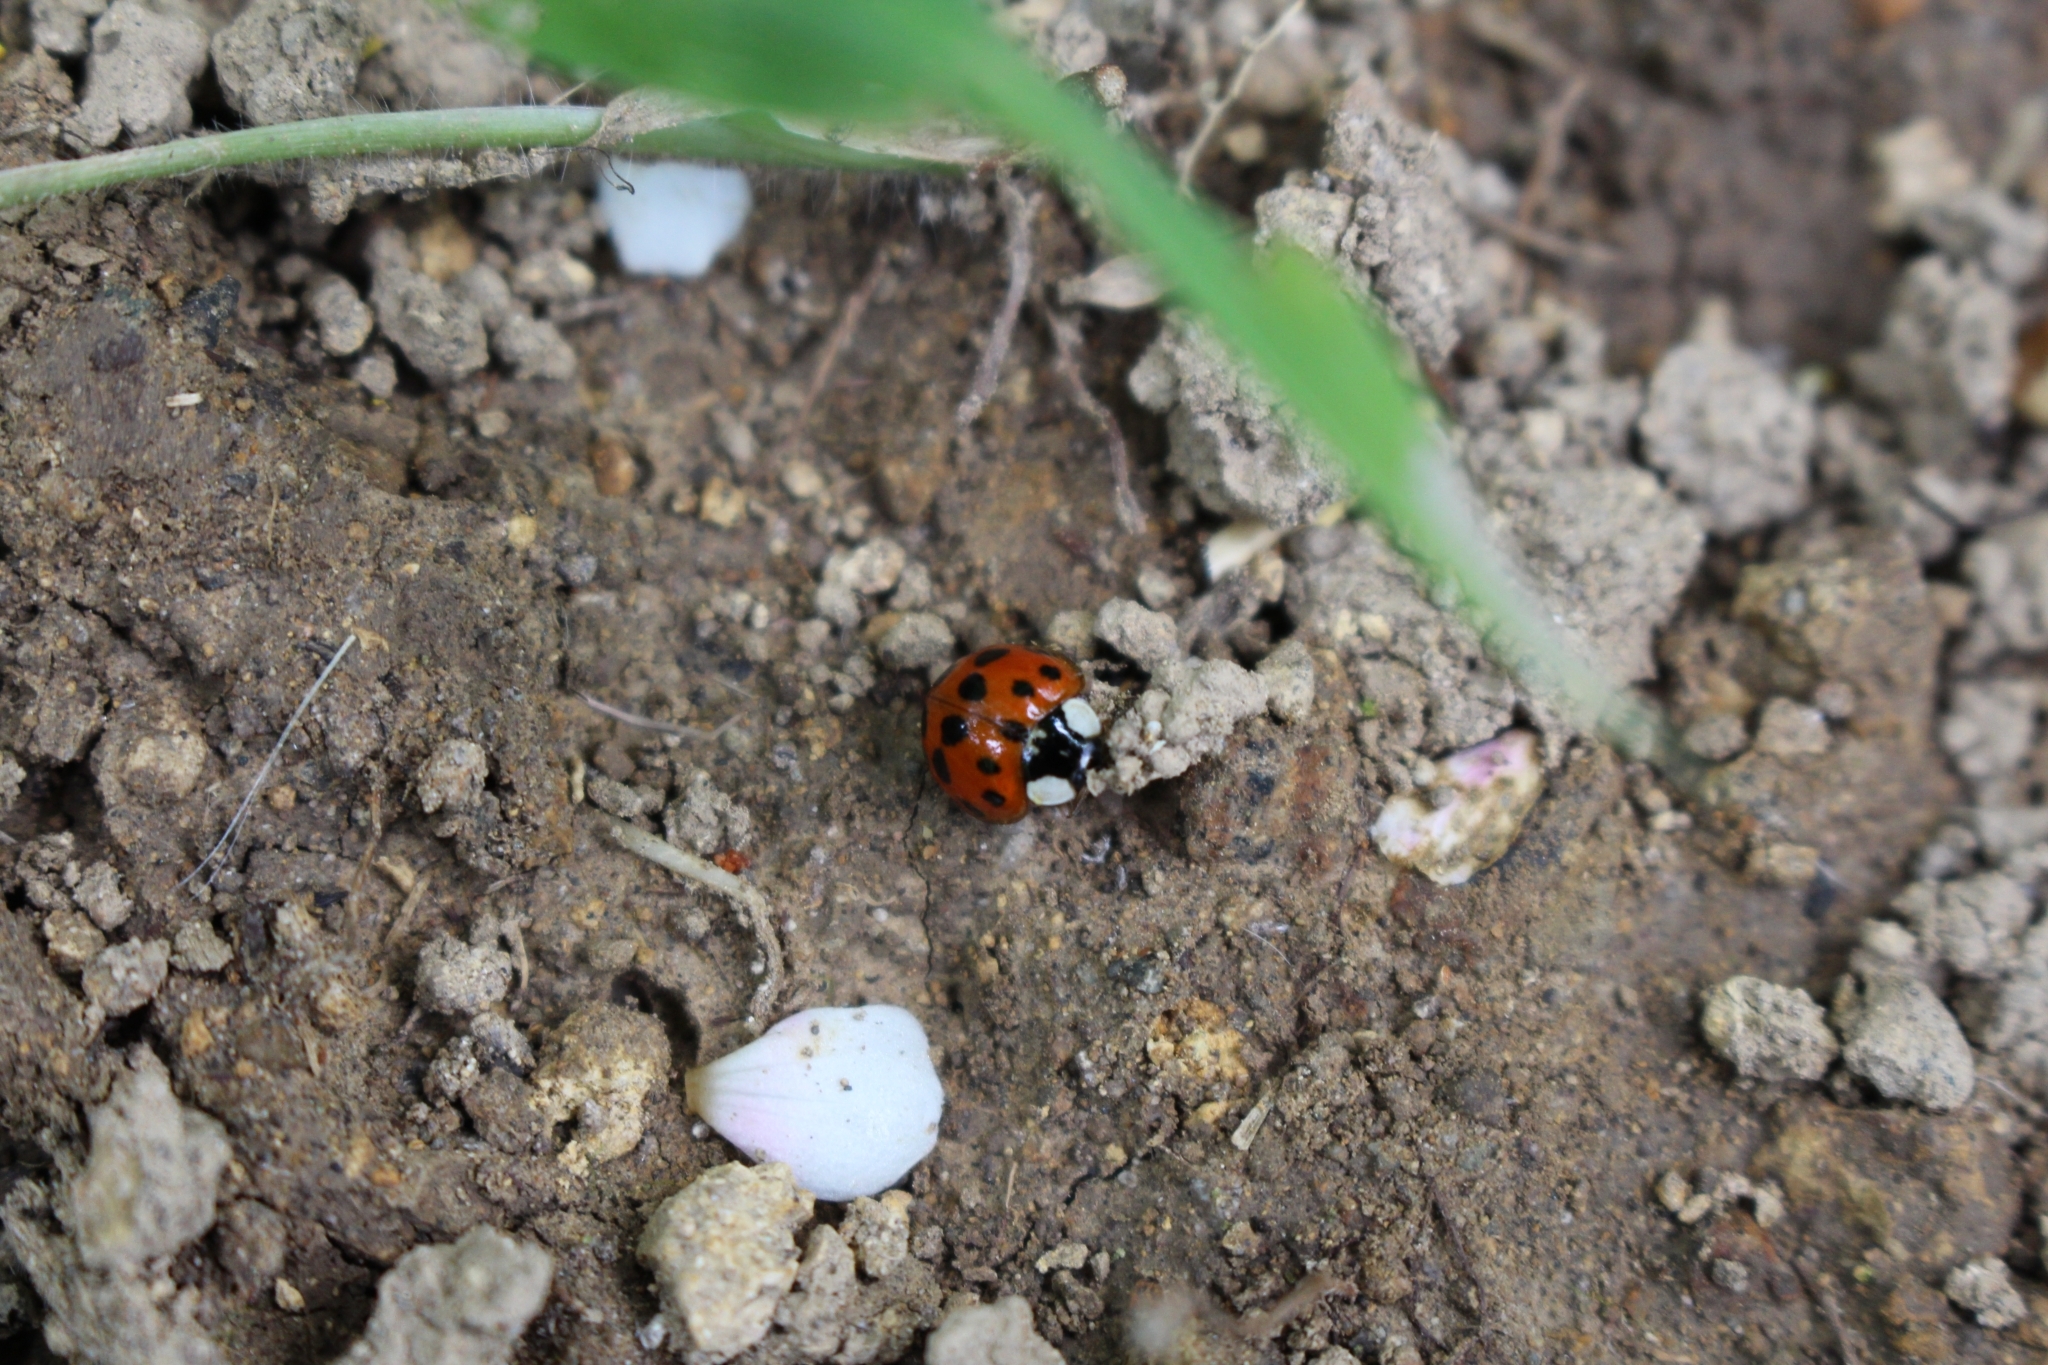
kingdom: Animalia
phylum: Arthropoda
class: Insecta
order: Coleoptera
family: Coccinellidae
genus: Harmonia
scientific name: Harmonia axyridis
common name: Harlequin ladybird
